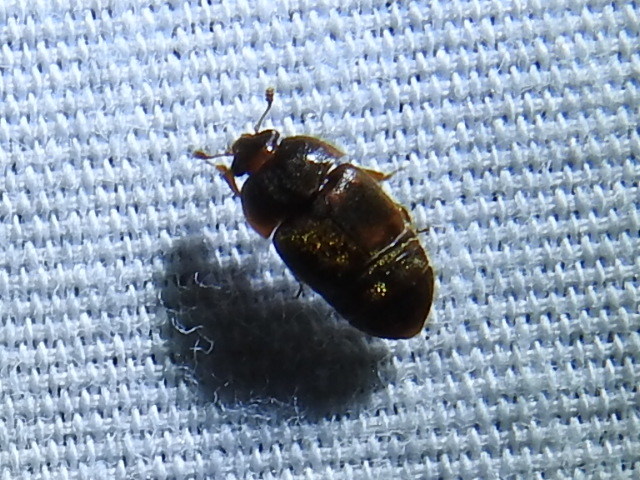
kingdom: Animalia
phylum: Arthropoda
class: Insecta
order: Coleoptera
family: Nitidulidae
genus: Colopterus
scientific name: Colopterus maculatus
